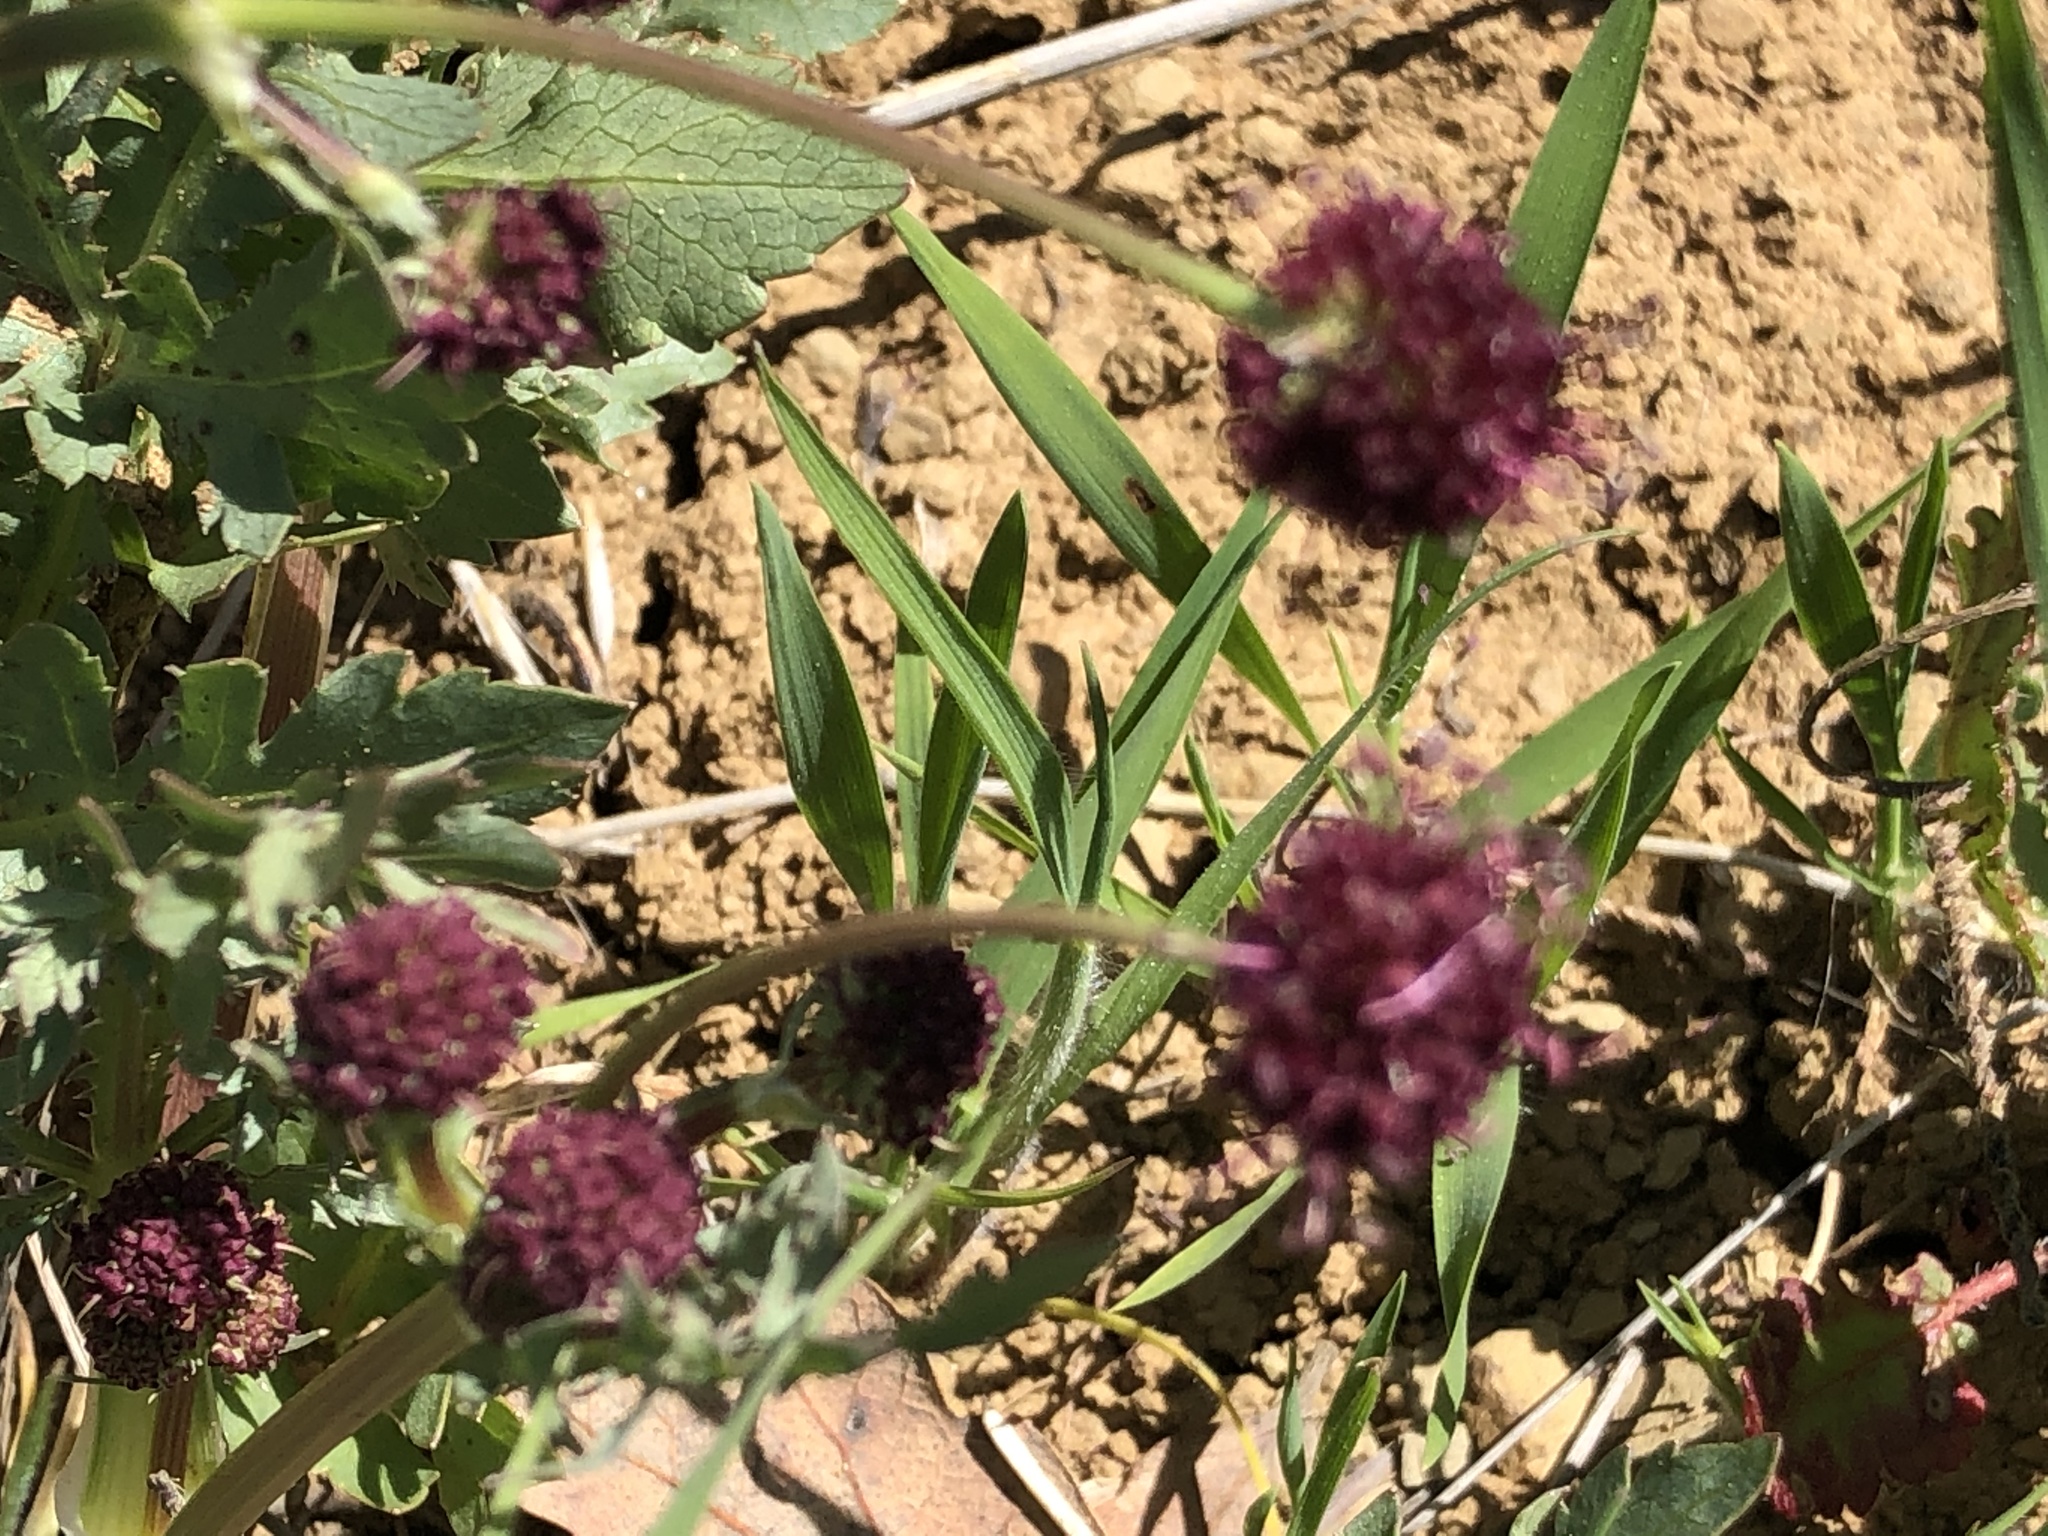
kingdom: Plantae
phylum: Tracheophyta
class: Magnoliopsida
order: Apiales
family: Apiaceae
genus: Sanicula
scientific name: Sanicula bipinnatifida
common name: Shoe-buttons
